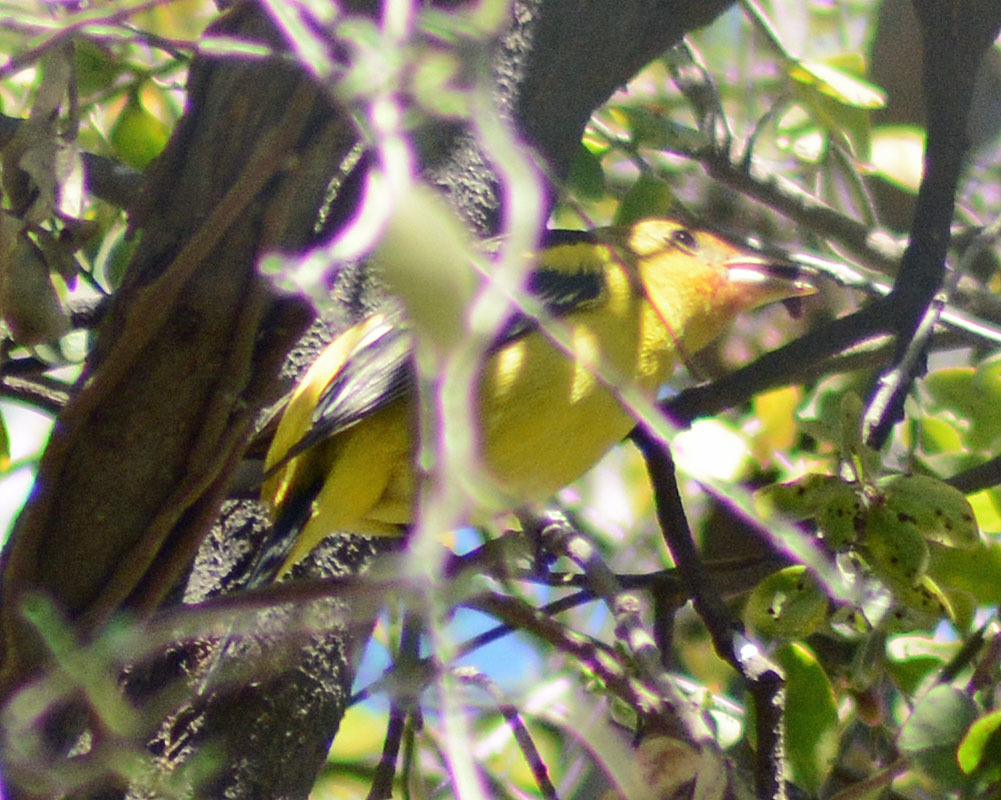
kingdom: Animalia
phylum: Chordata
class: Aves
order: Passeriformes
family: Cardinalidae
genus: Piranga
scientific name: Piranga ludoviciana
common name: Western tanager
